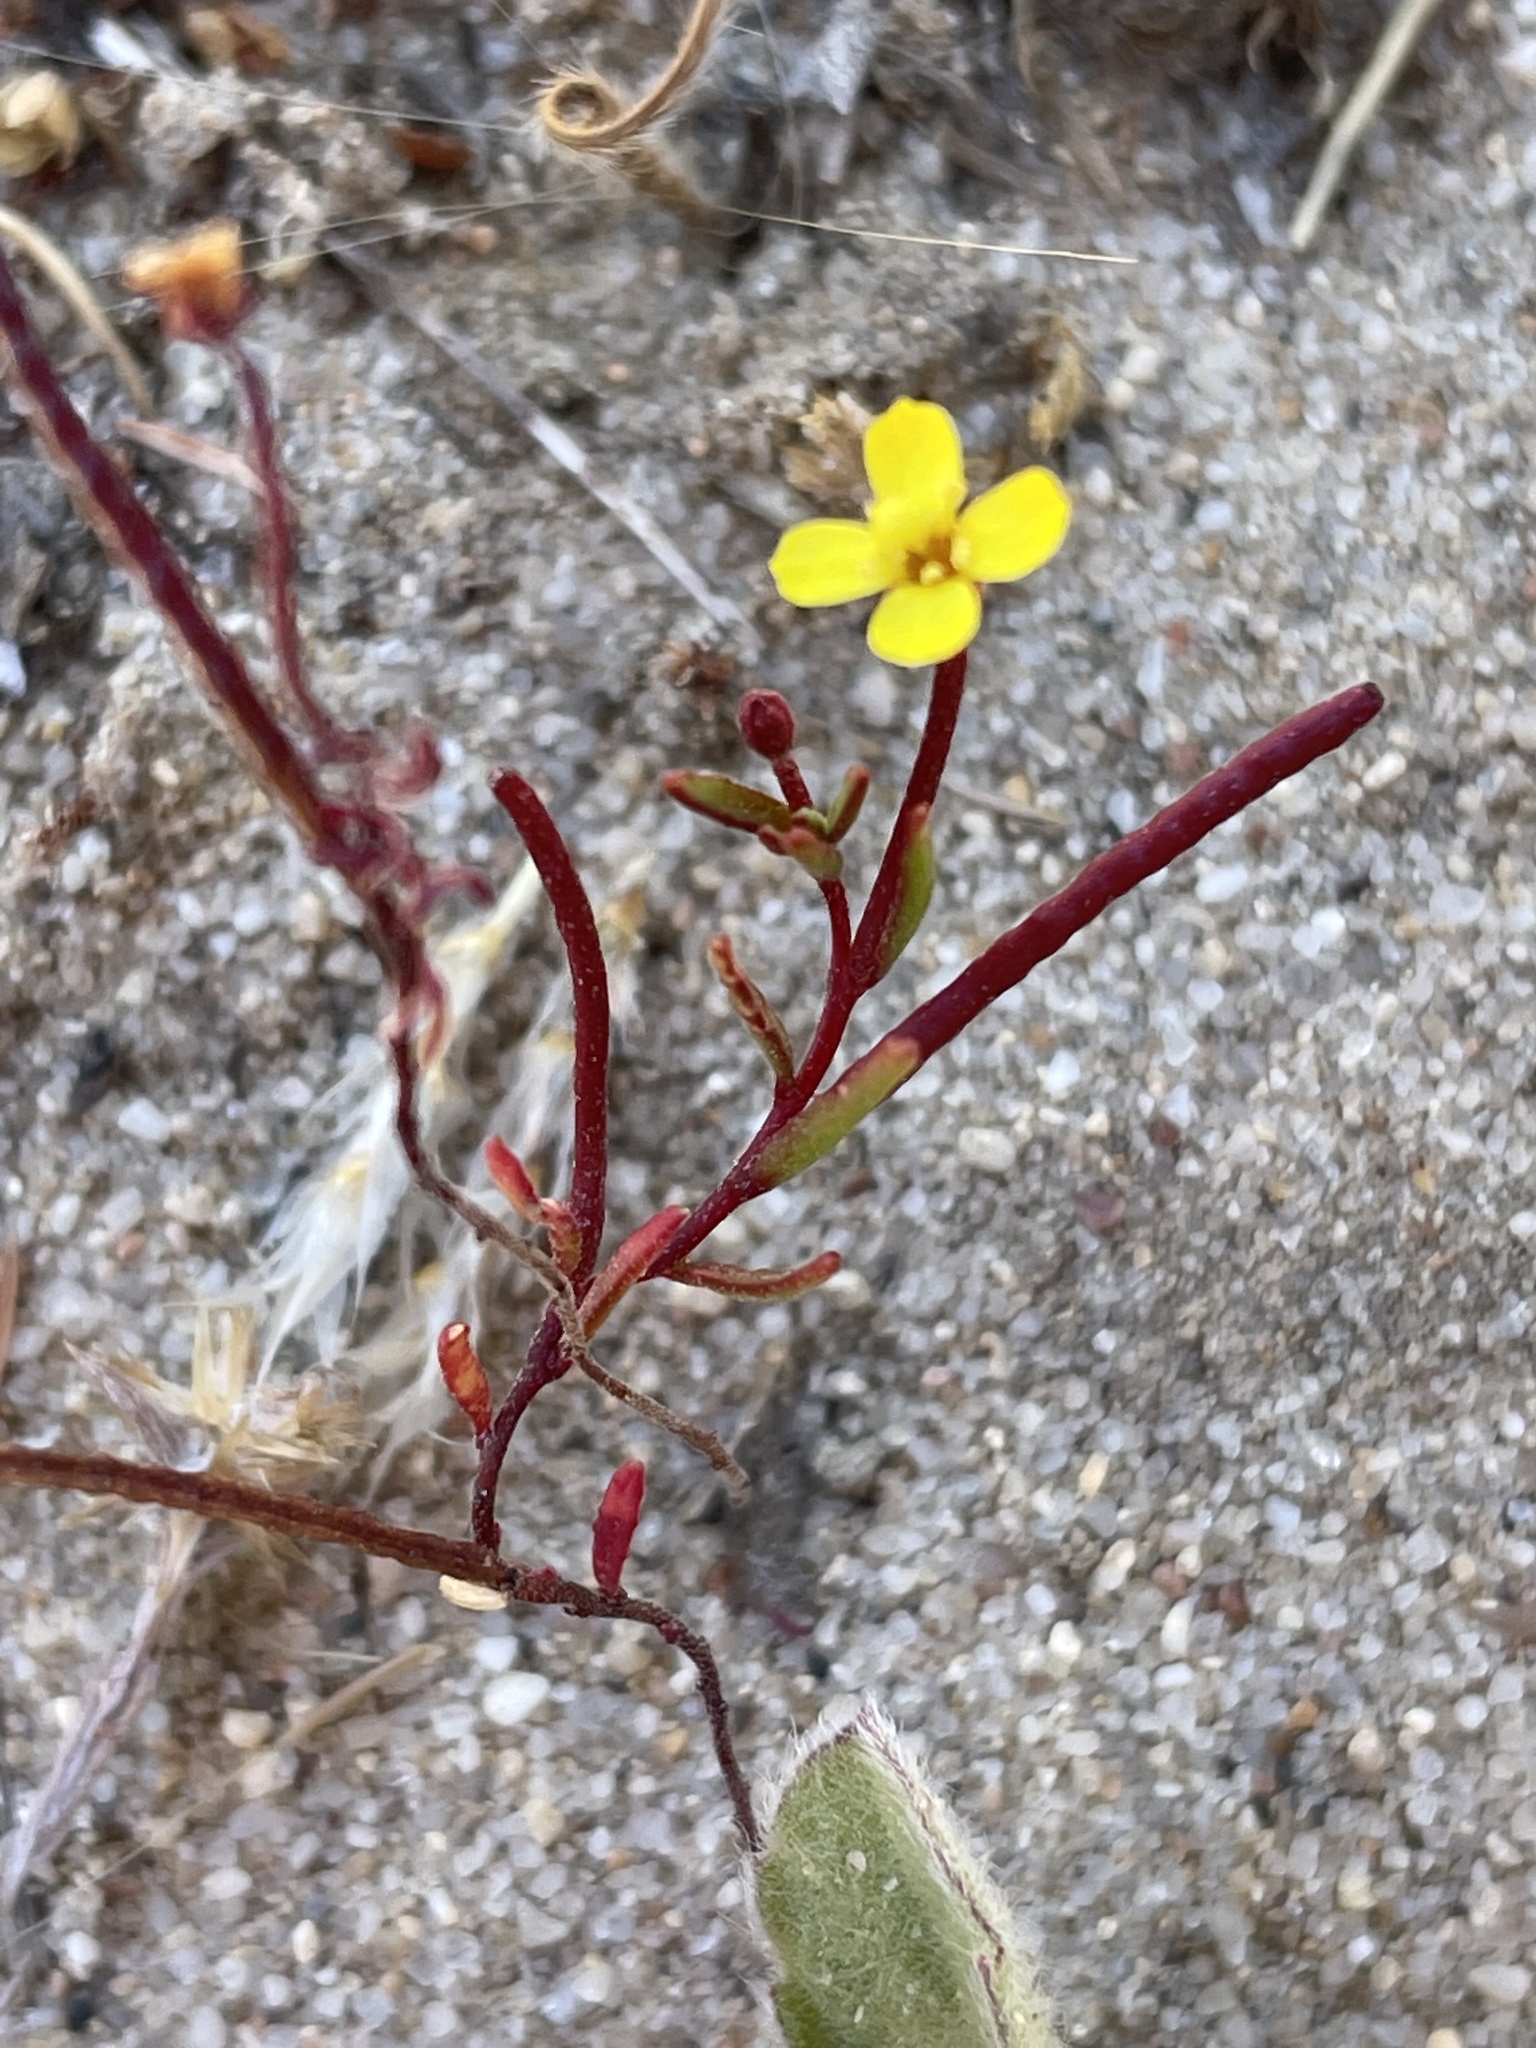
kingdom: Plantae
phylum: Tracheophyta
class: Magnoliopsida
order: Myrtales
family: Onagraceae
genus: Camissonia
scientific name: Camissonia strigulosa
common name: Contorted-primrose
